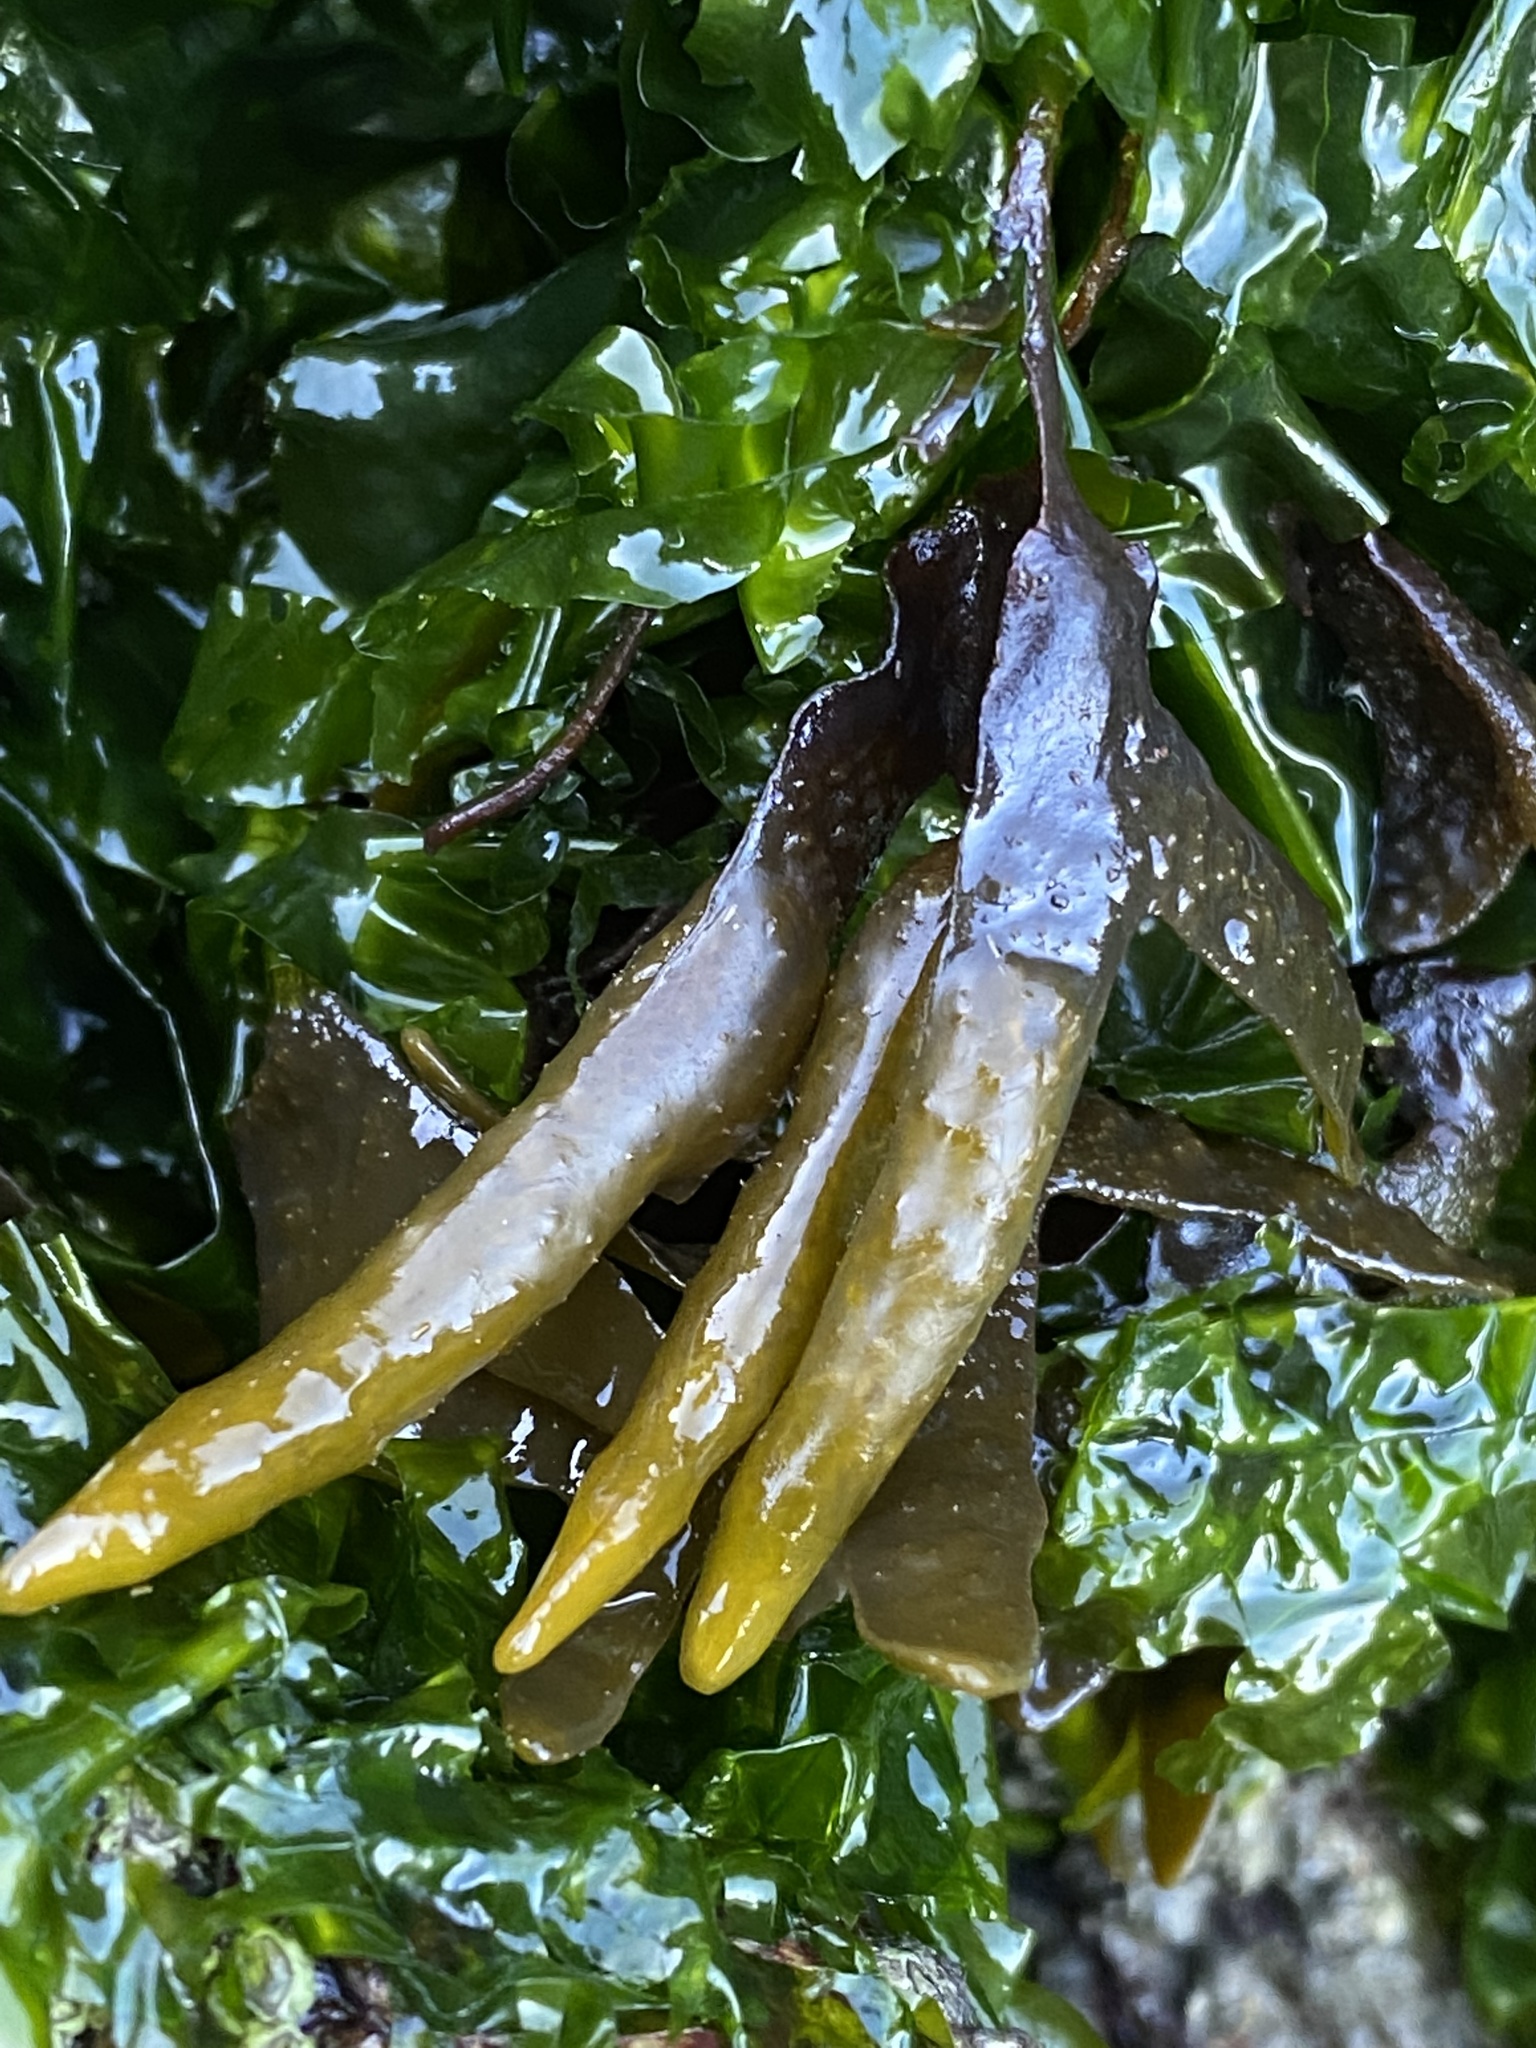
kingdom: Chromista
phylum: Ochrophyta
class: Phaeophyceae
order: Fucales
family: Fucaceae
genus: Fucus
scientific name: Fucus distichus
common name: Rockweed
